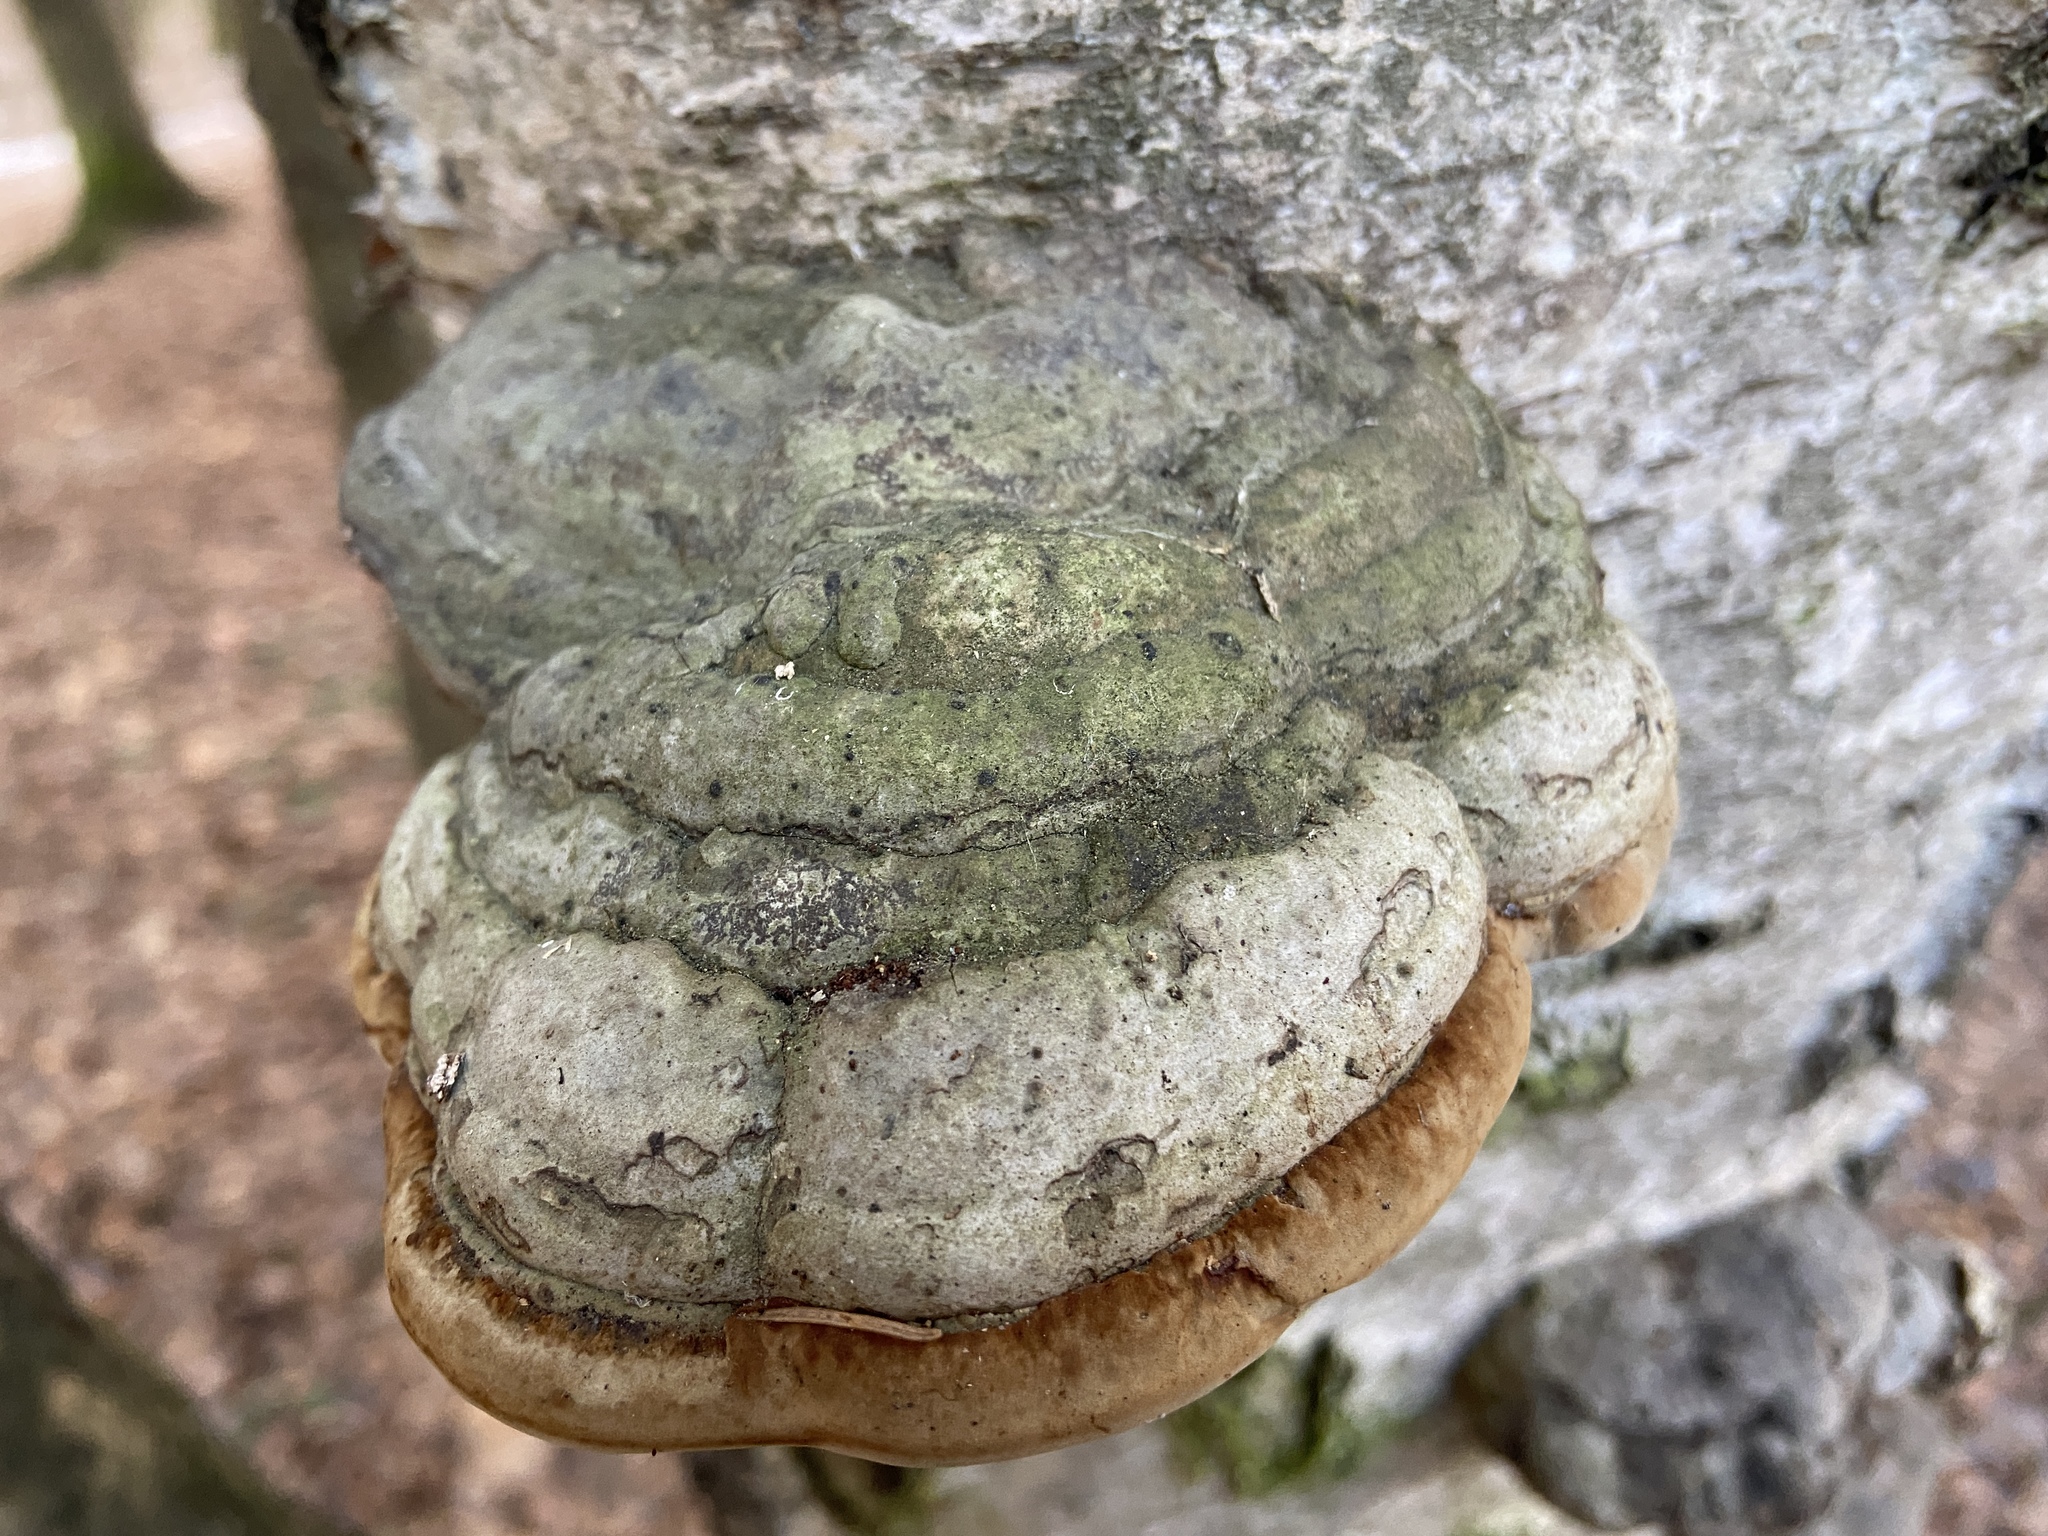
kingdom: Fungi
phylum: Basidiomycota
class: Agaricomycetes
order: Polyporales
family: Polyporaceae
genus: Fomes
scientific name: Fomes fomentarius
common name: Hoof fungus
